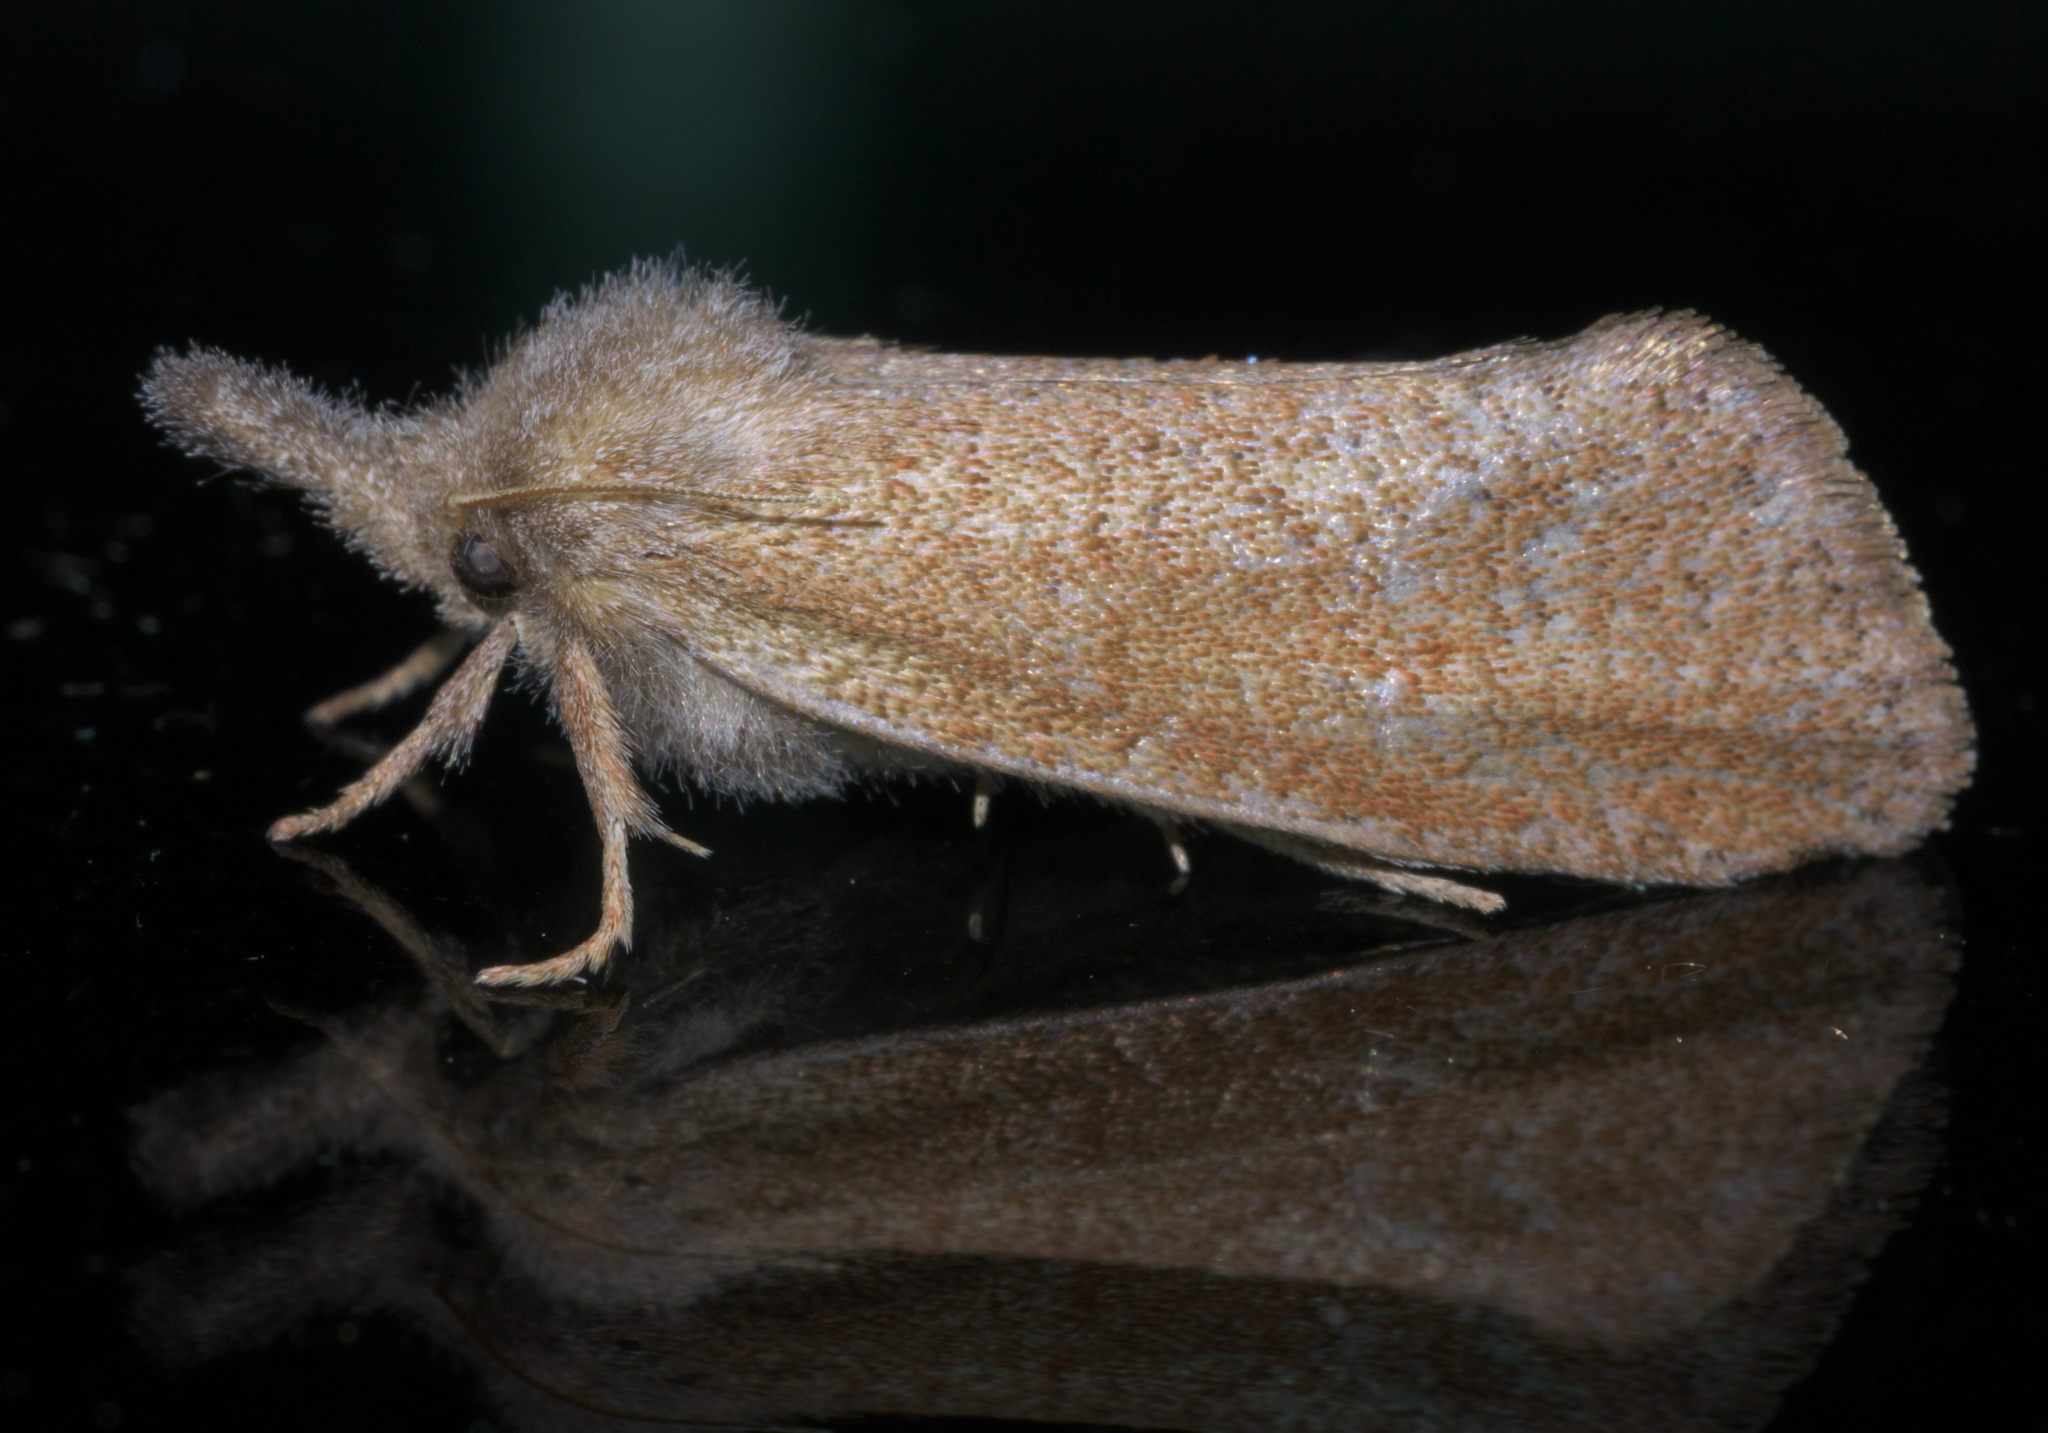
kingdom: Animalia
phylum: Arthropoda
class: Insecta
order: Lepidoptera
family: Tineidae
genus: Acrolophus
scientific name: Acrolophus plumifrontella
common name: Eastern grass tubeworm moth
